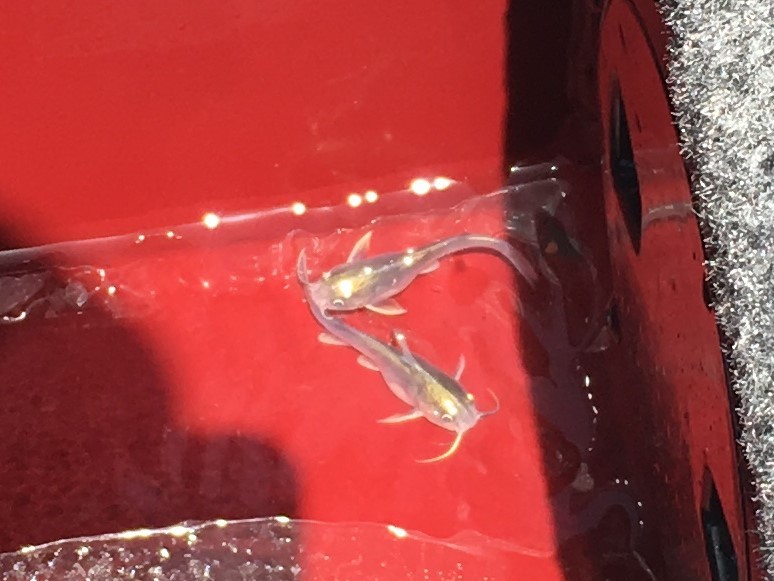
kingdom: Animalia
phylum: Chordata
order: Siluriformes
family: Ariidae
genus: Ariopsis
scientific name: Ariopsis felis
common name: Hardhead catfish
